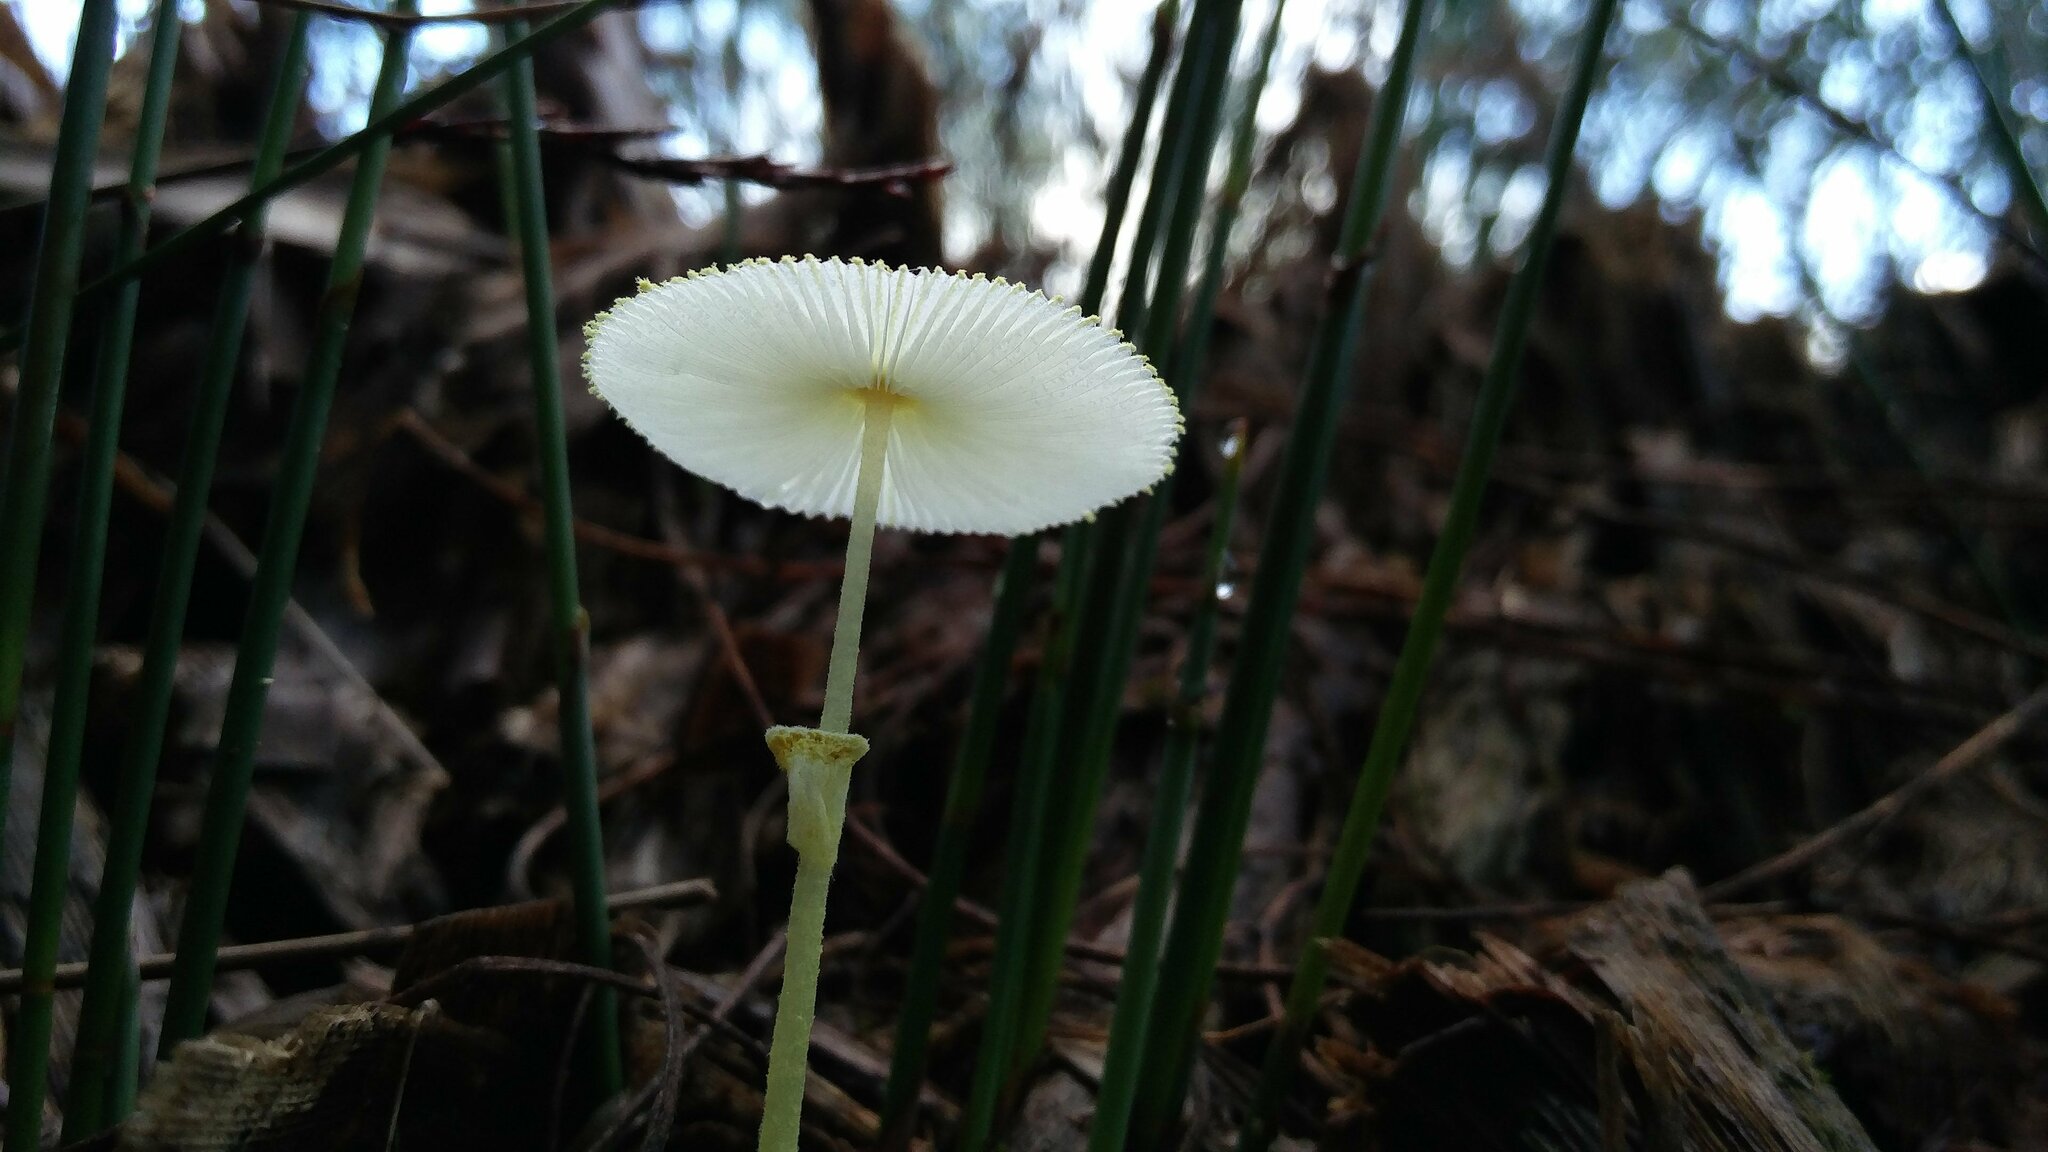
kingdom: Fungi
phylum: Basidiomycota
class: Agaricomycetes
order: Agaricales
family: Agaricaceae
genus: Leucocoprinus
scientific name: Leucocoprinus fragilissimus
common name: Fragile dapperling
